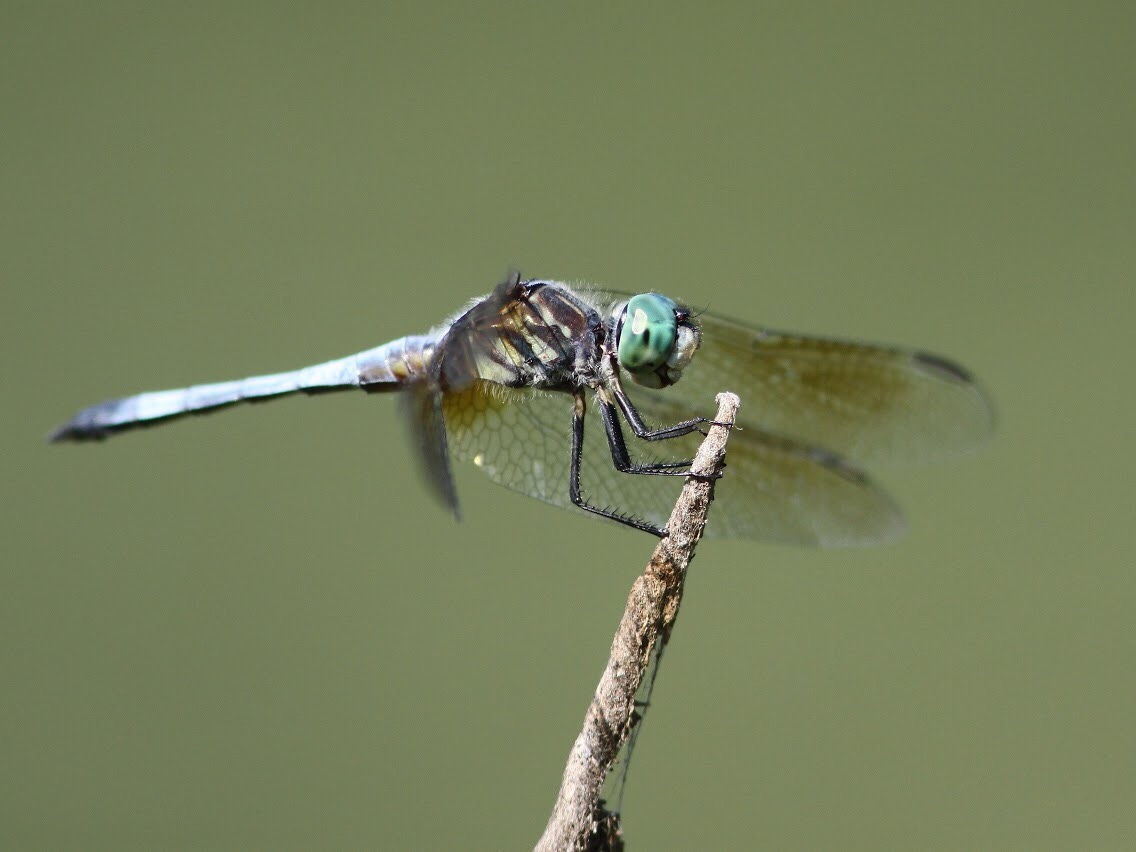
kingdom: Animalia
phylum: Arthropoda
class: Insecta
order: Odonata
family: Libellulidae
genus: Pachydiplax
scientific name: Pachydiplax longipennis
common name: Blue dasher
